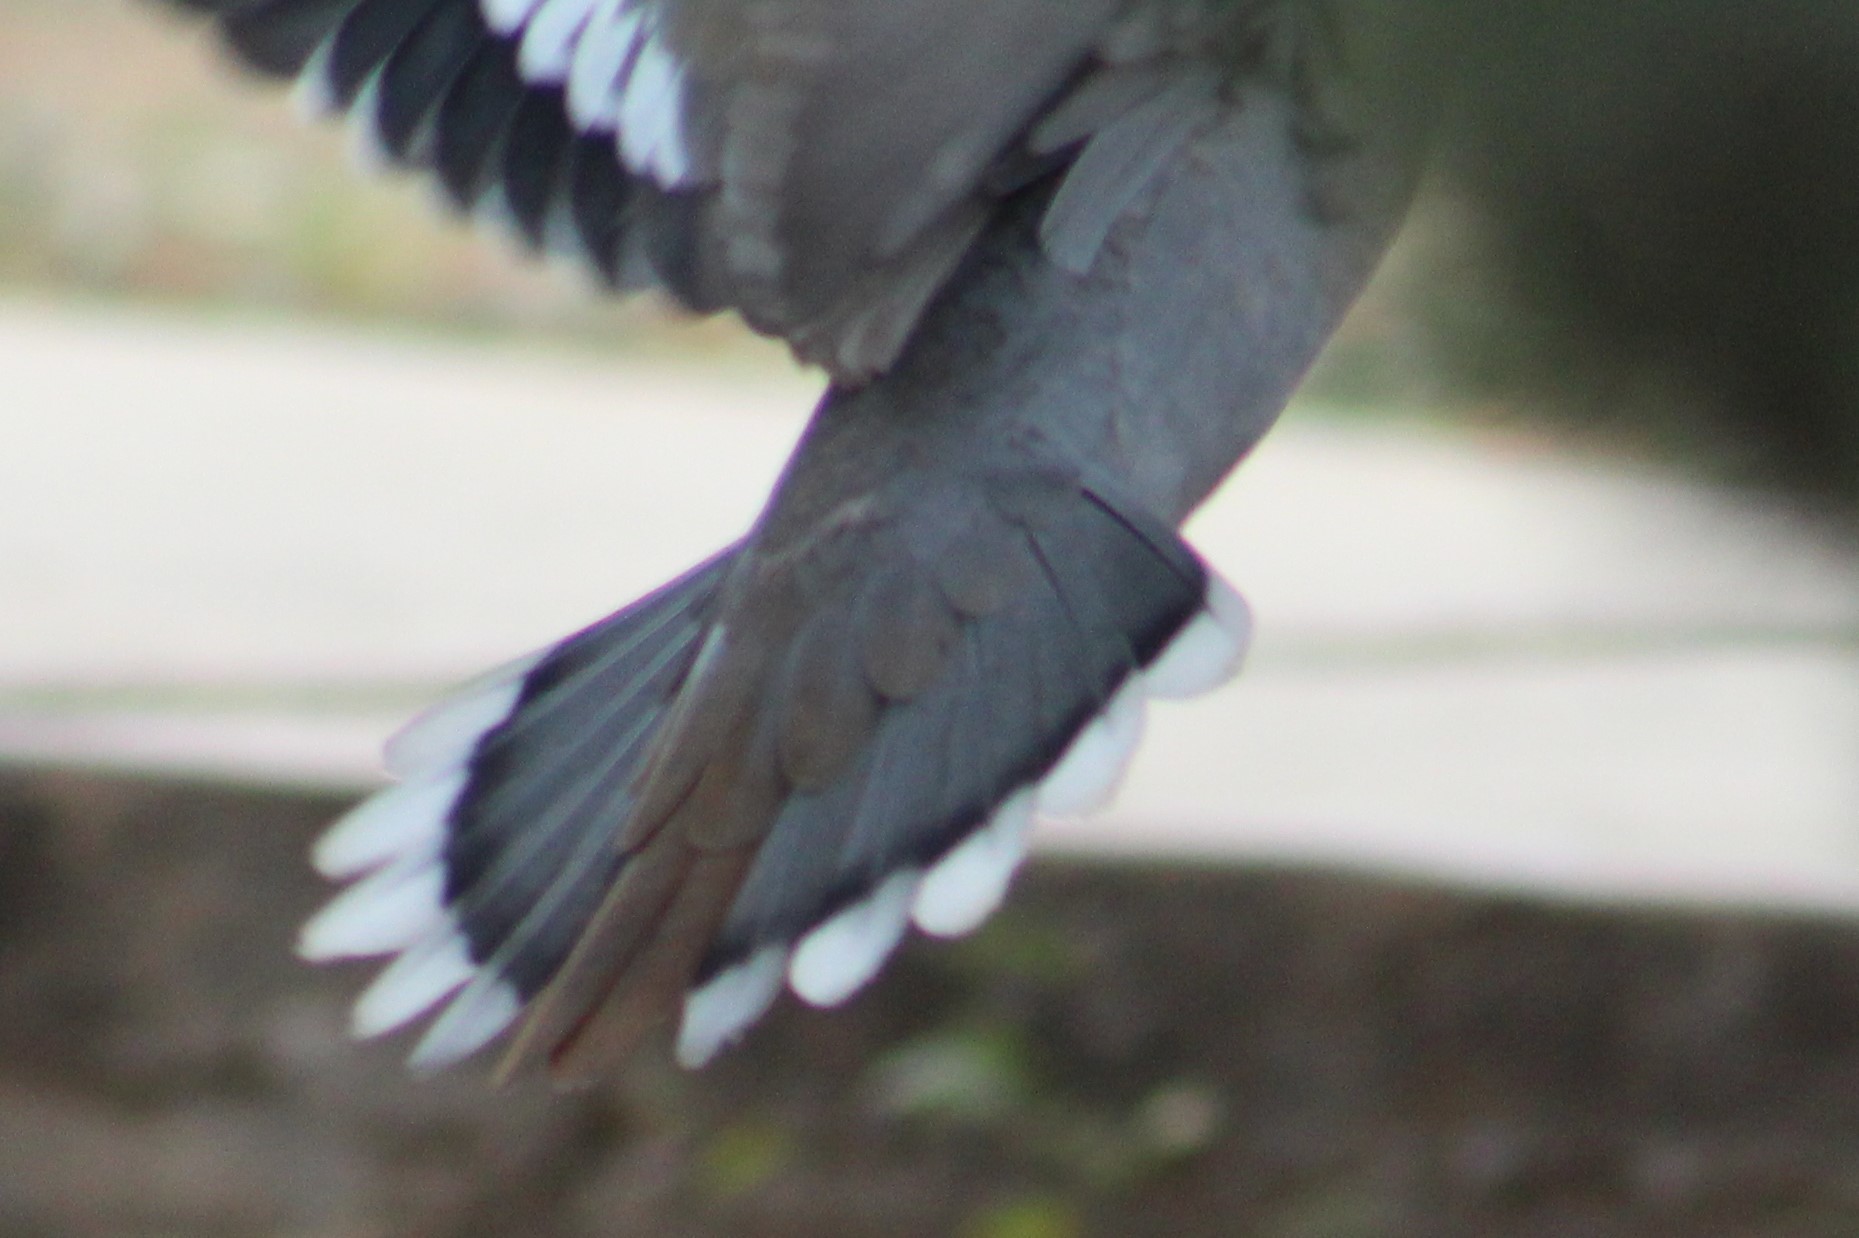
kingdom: Animalia
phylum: Chordata
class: Aves
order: Columbiformes
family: Columbidae
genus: Zenaida
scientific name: Zenaida asiatica
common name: White-winged dove
